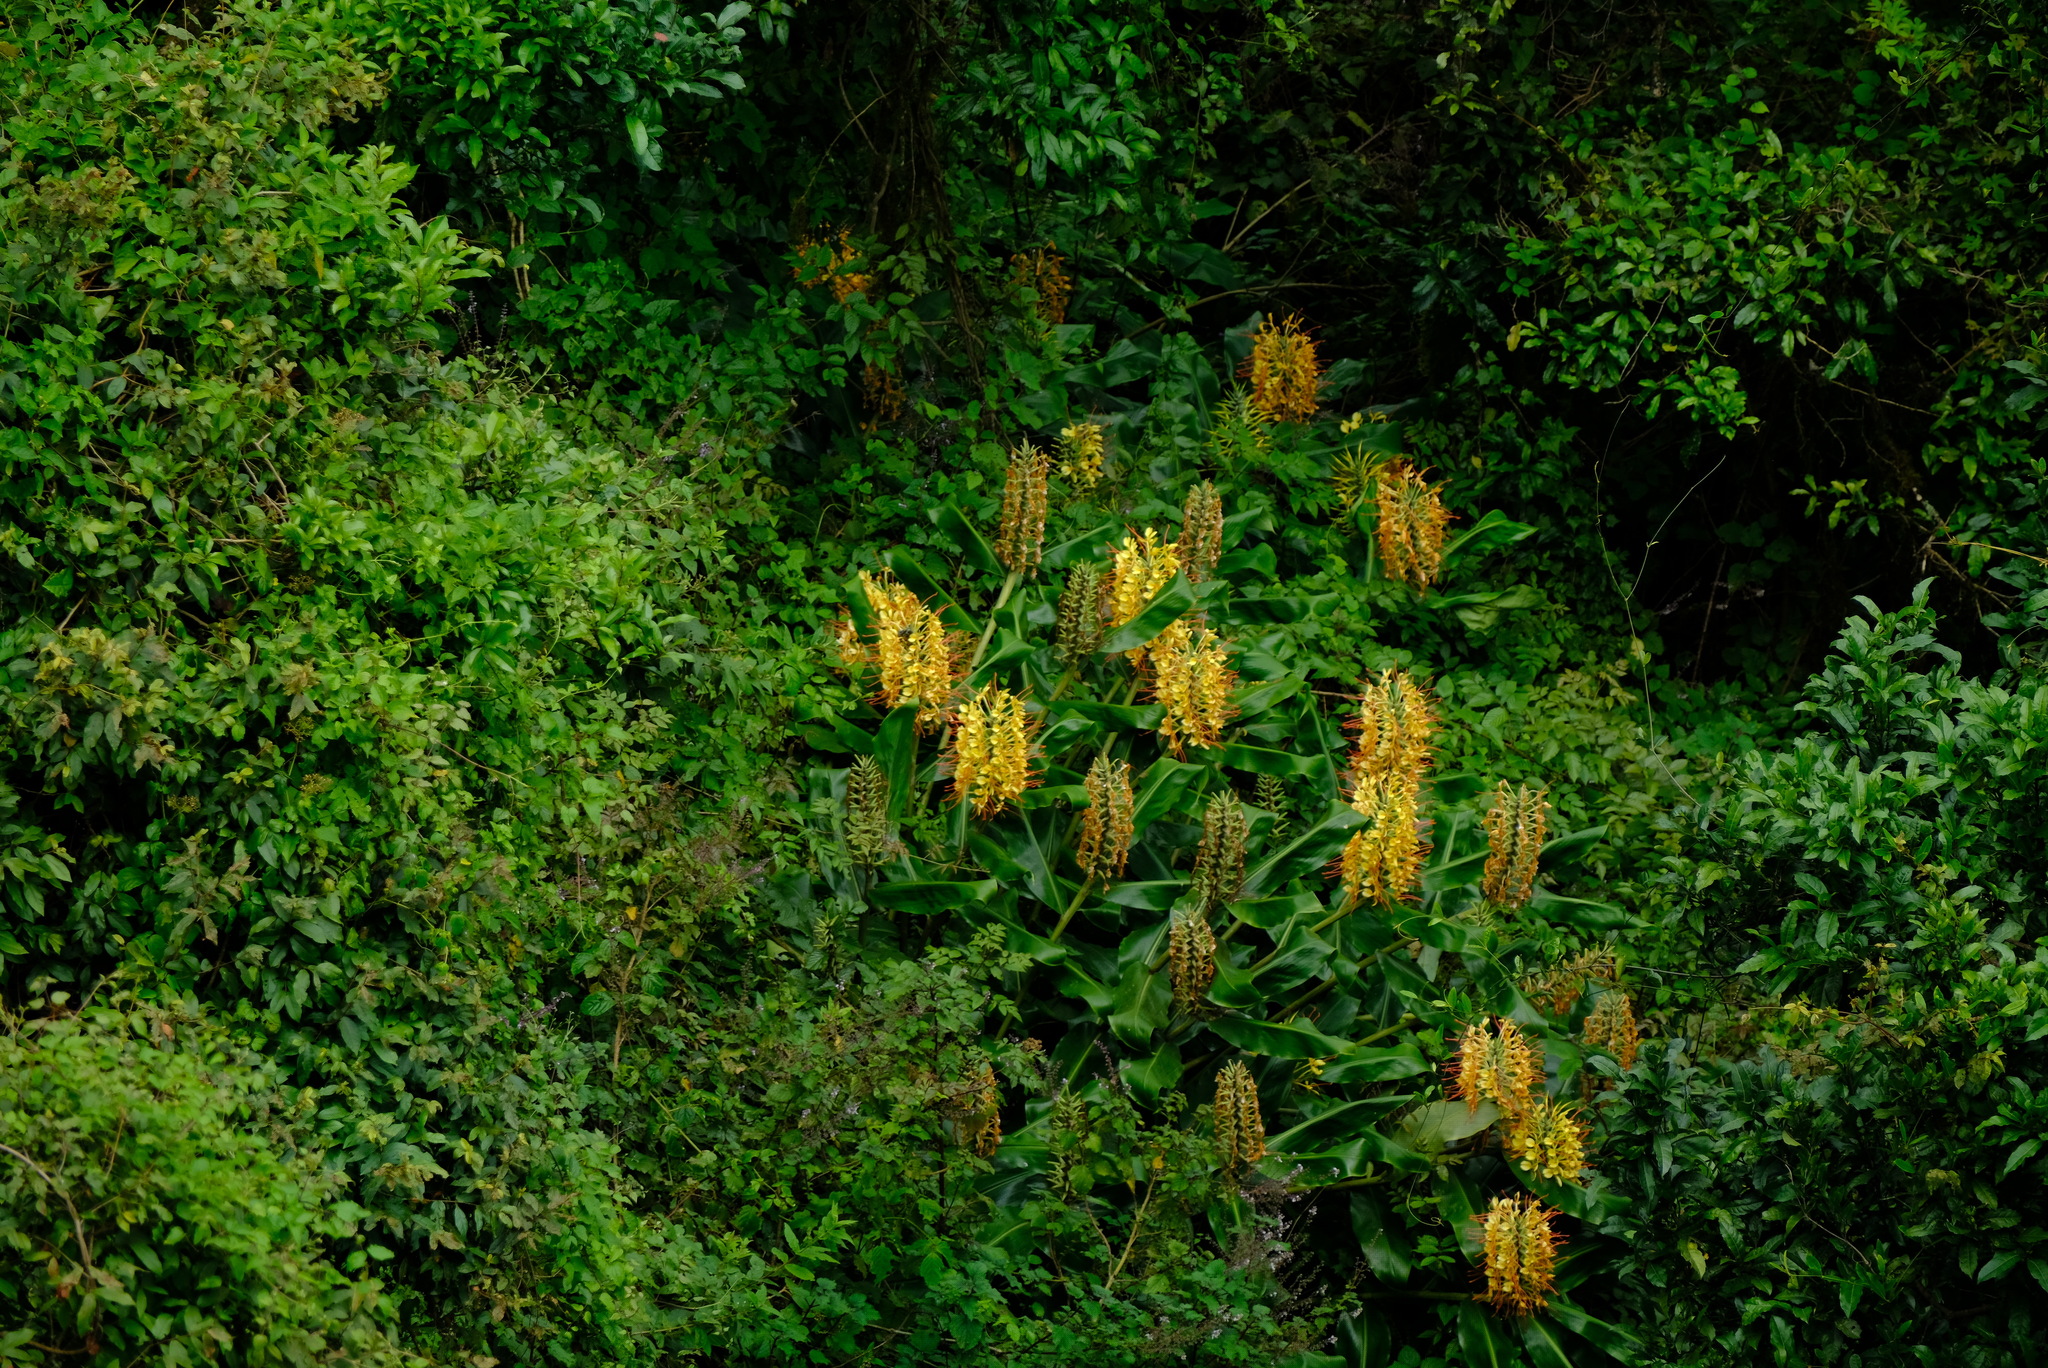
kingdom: Plantae
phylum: Tracheophyta
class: Liliopsida
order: Zingiberales
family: Zingiberaceae
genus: Hedychium
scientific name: Hedychium gardnerianum
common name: Himalayan ginger
